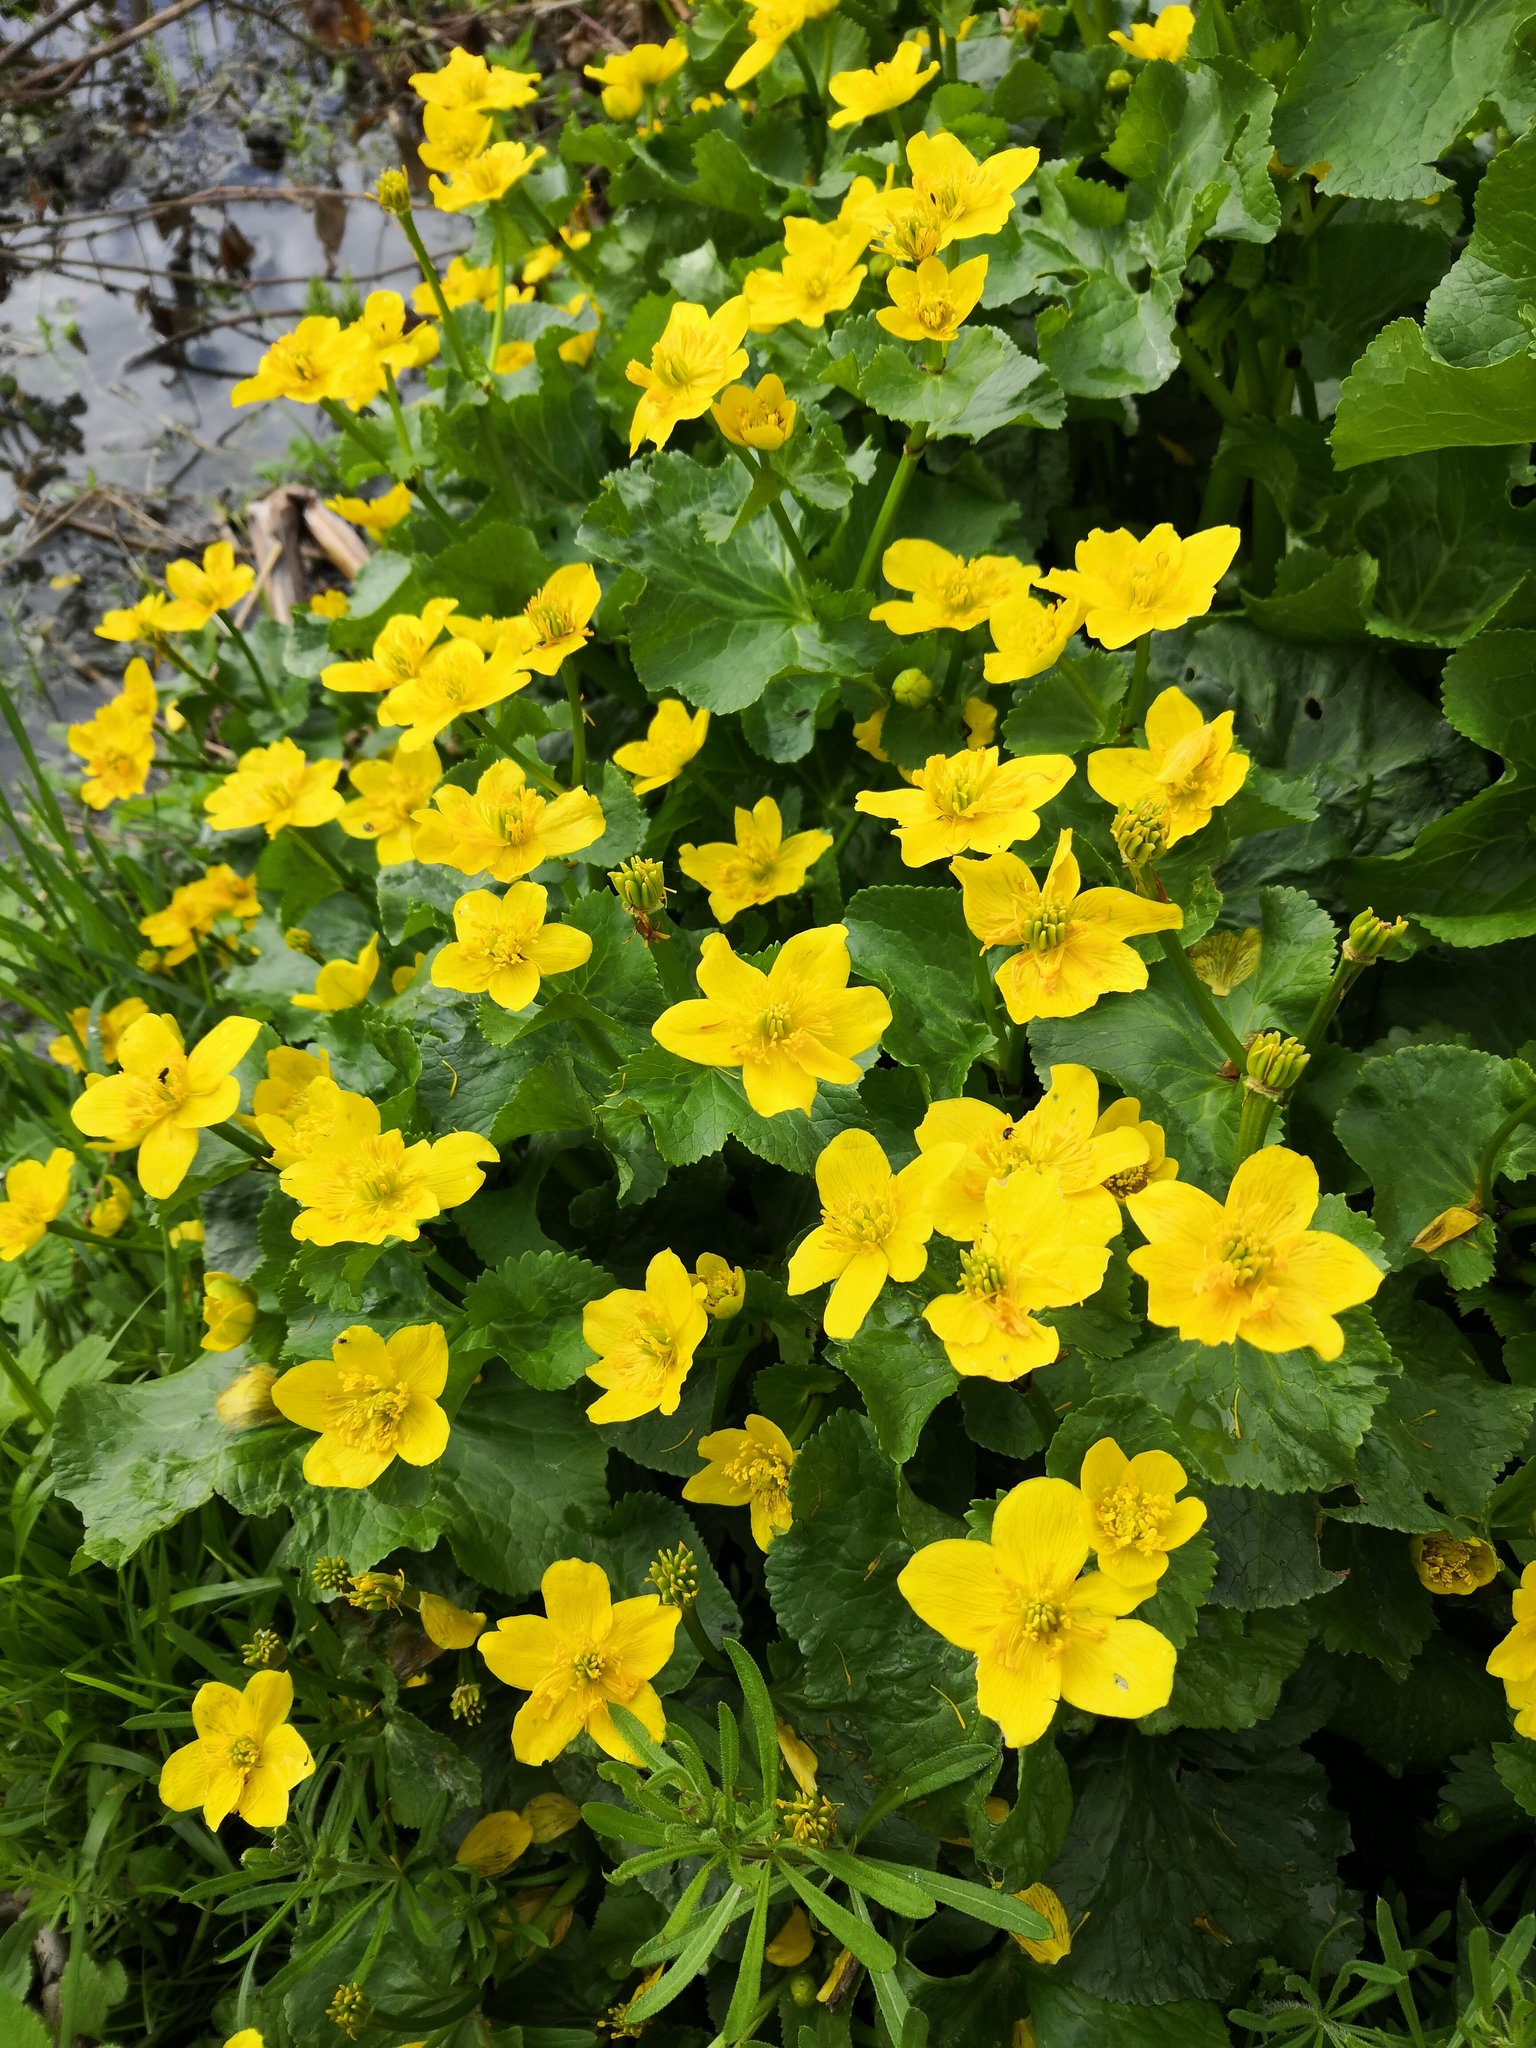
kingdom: Plantae
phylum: Tracheophyta
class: Magnoliopsida
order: Ranunculales
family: Ranunculaceae
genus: Caltha
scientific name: Caltha palustris
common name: Marsh marigold
